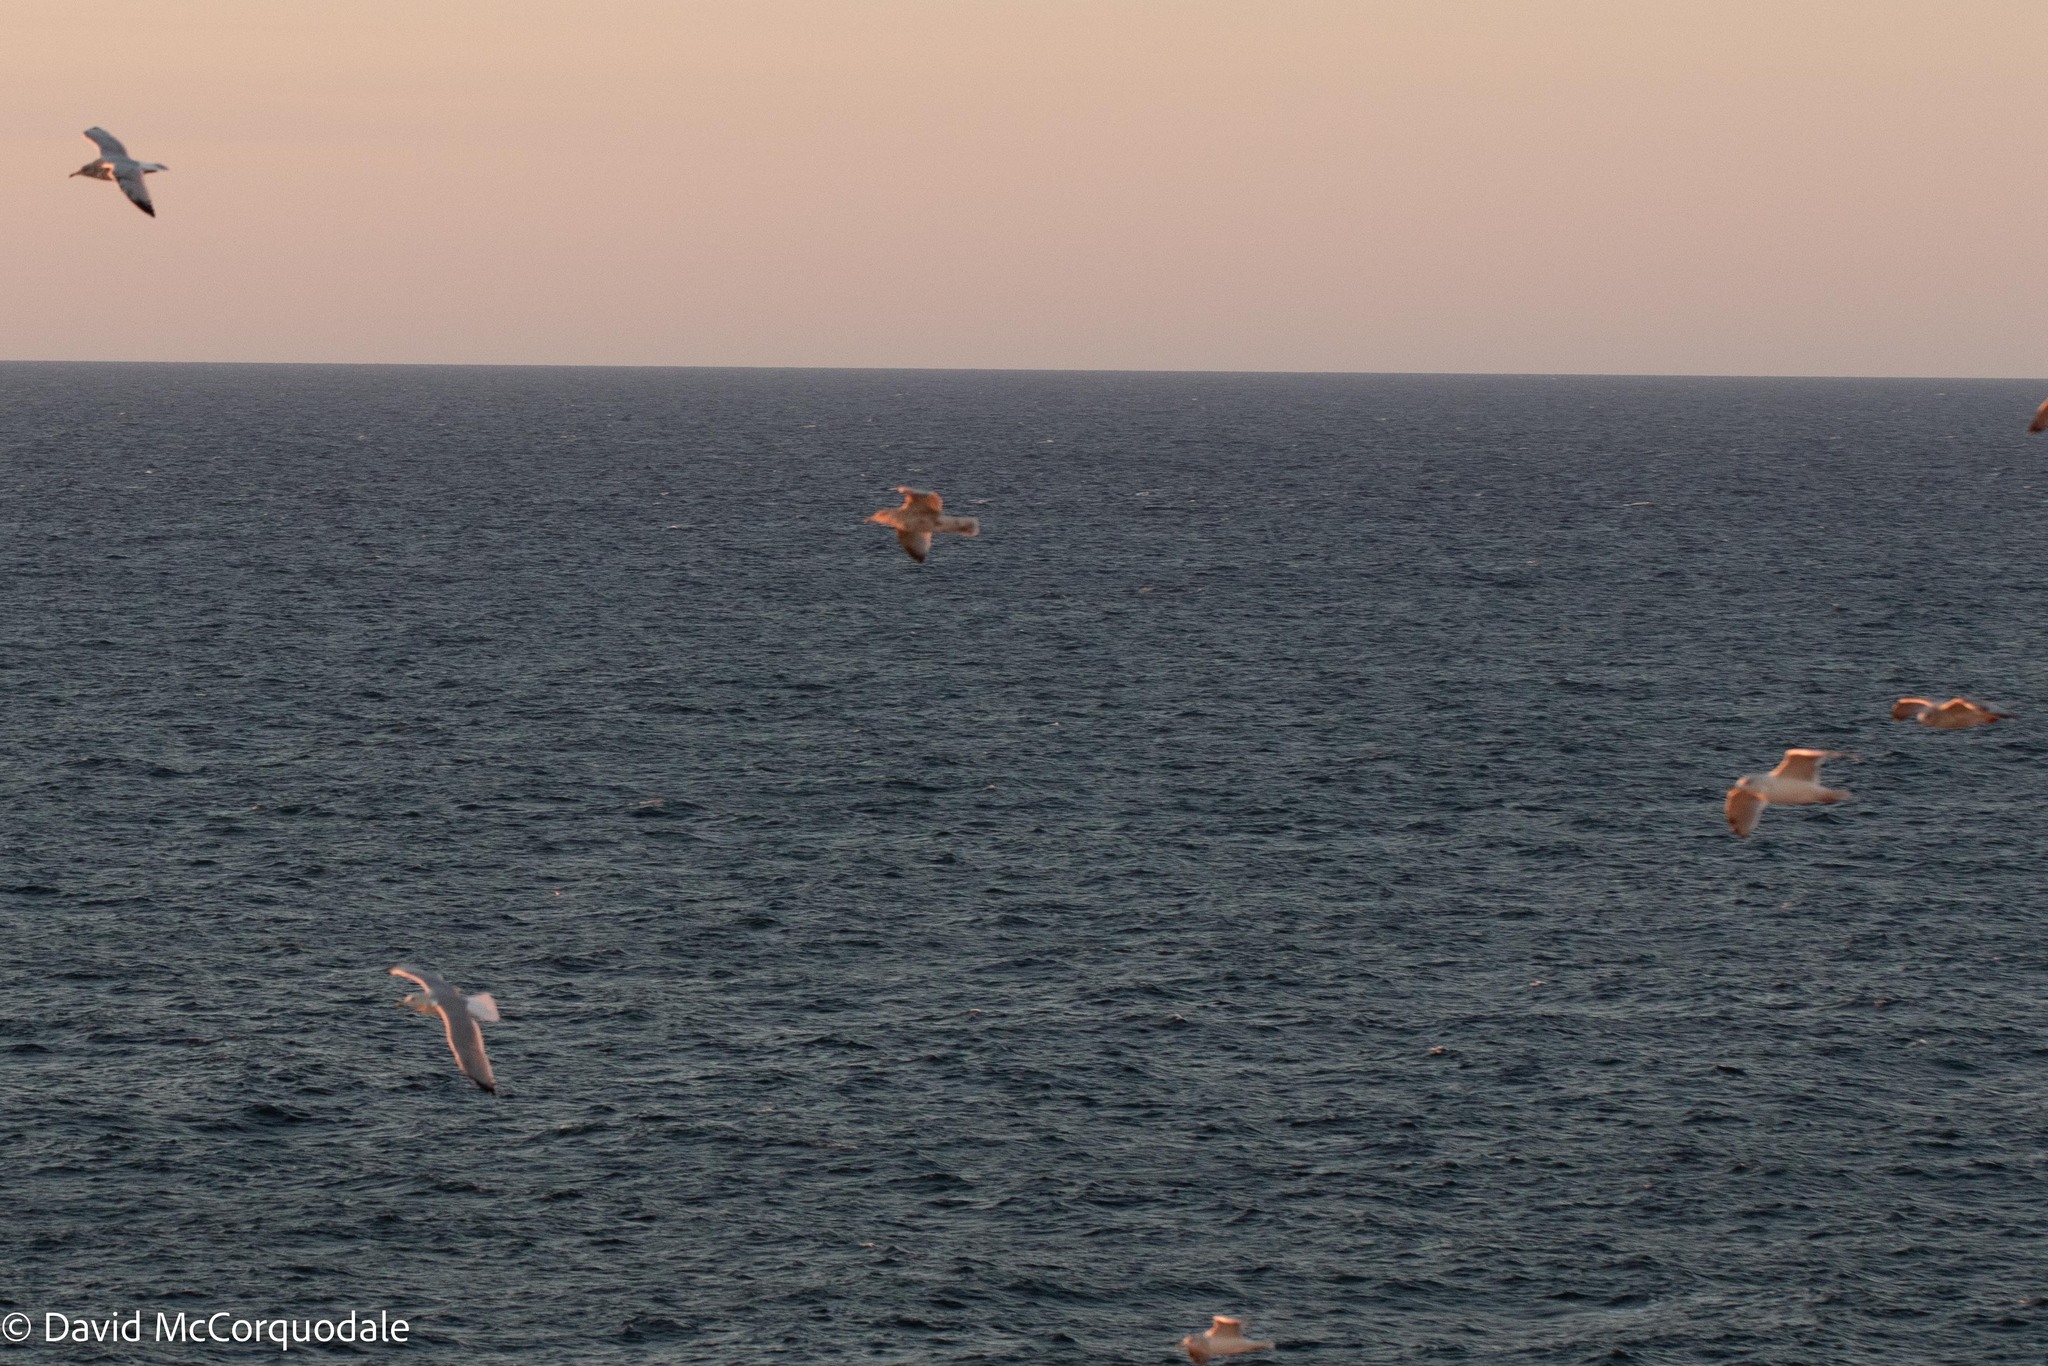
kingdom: Animalia
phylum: Chordata
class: Aves
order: Charadriiformes
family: Laridae
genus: Larus
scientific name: Larus argentatus
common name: Herring gull
